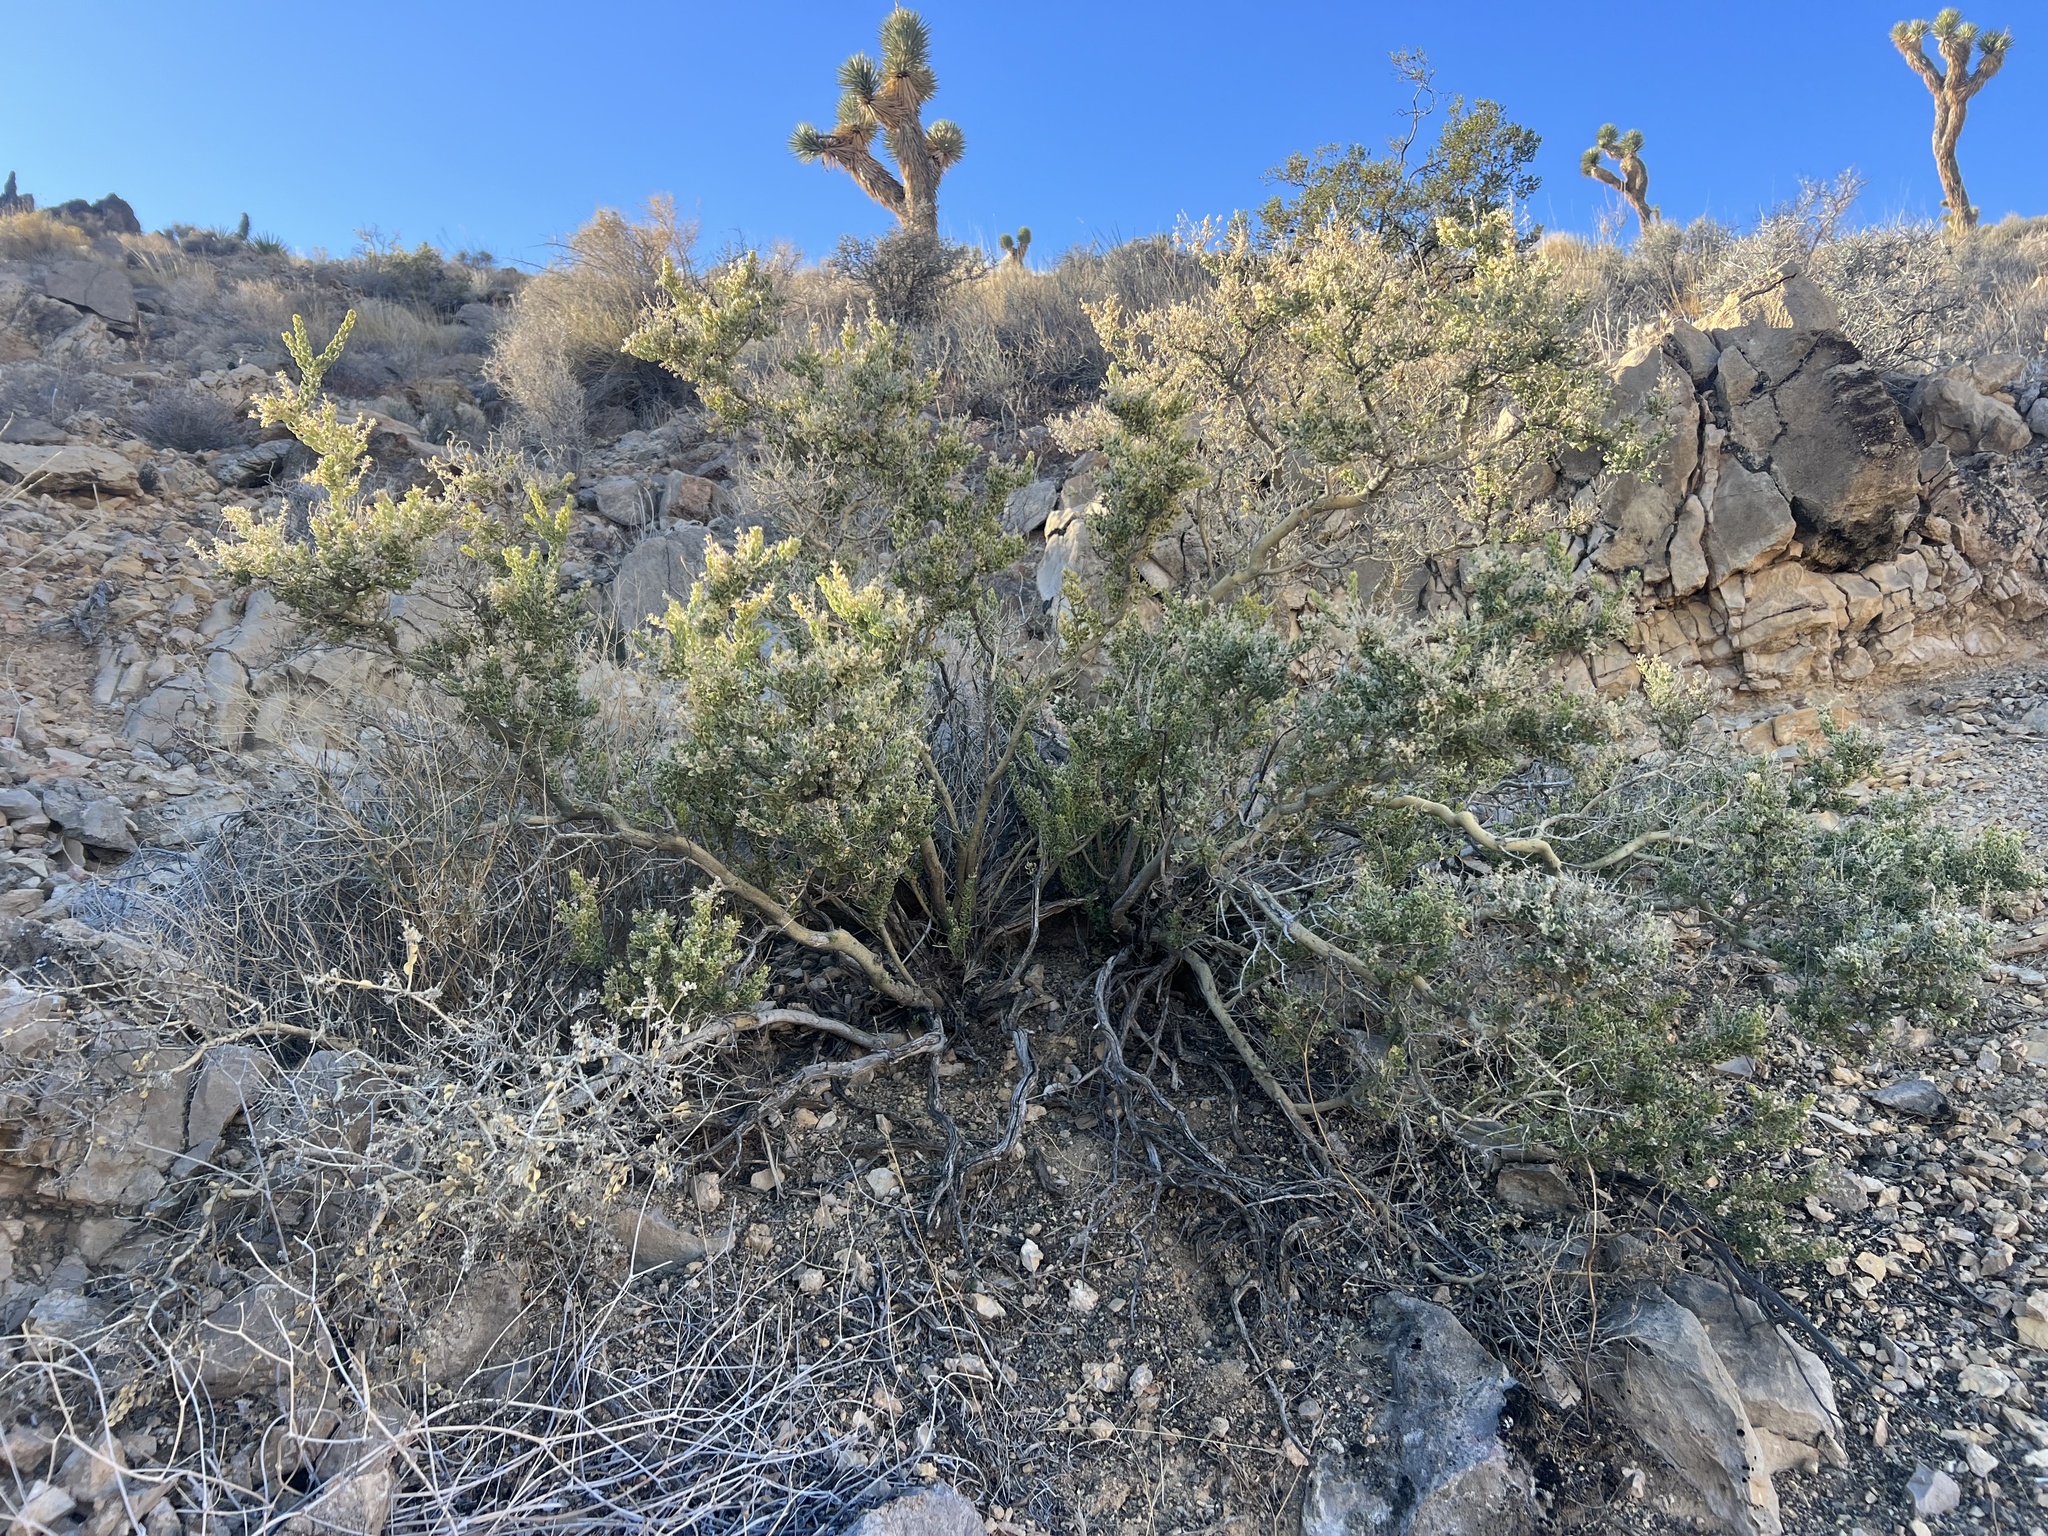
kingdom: Plantae
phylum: Tracheophyta
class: Magnoliopsida
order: Celastrales
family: Celastraceae
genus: Mortonia
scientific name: Mortonia utahensis
